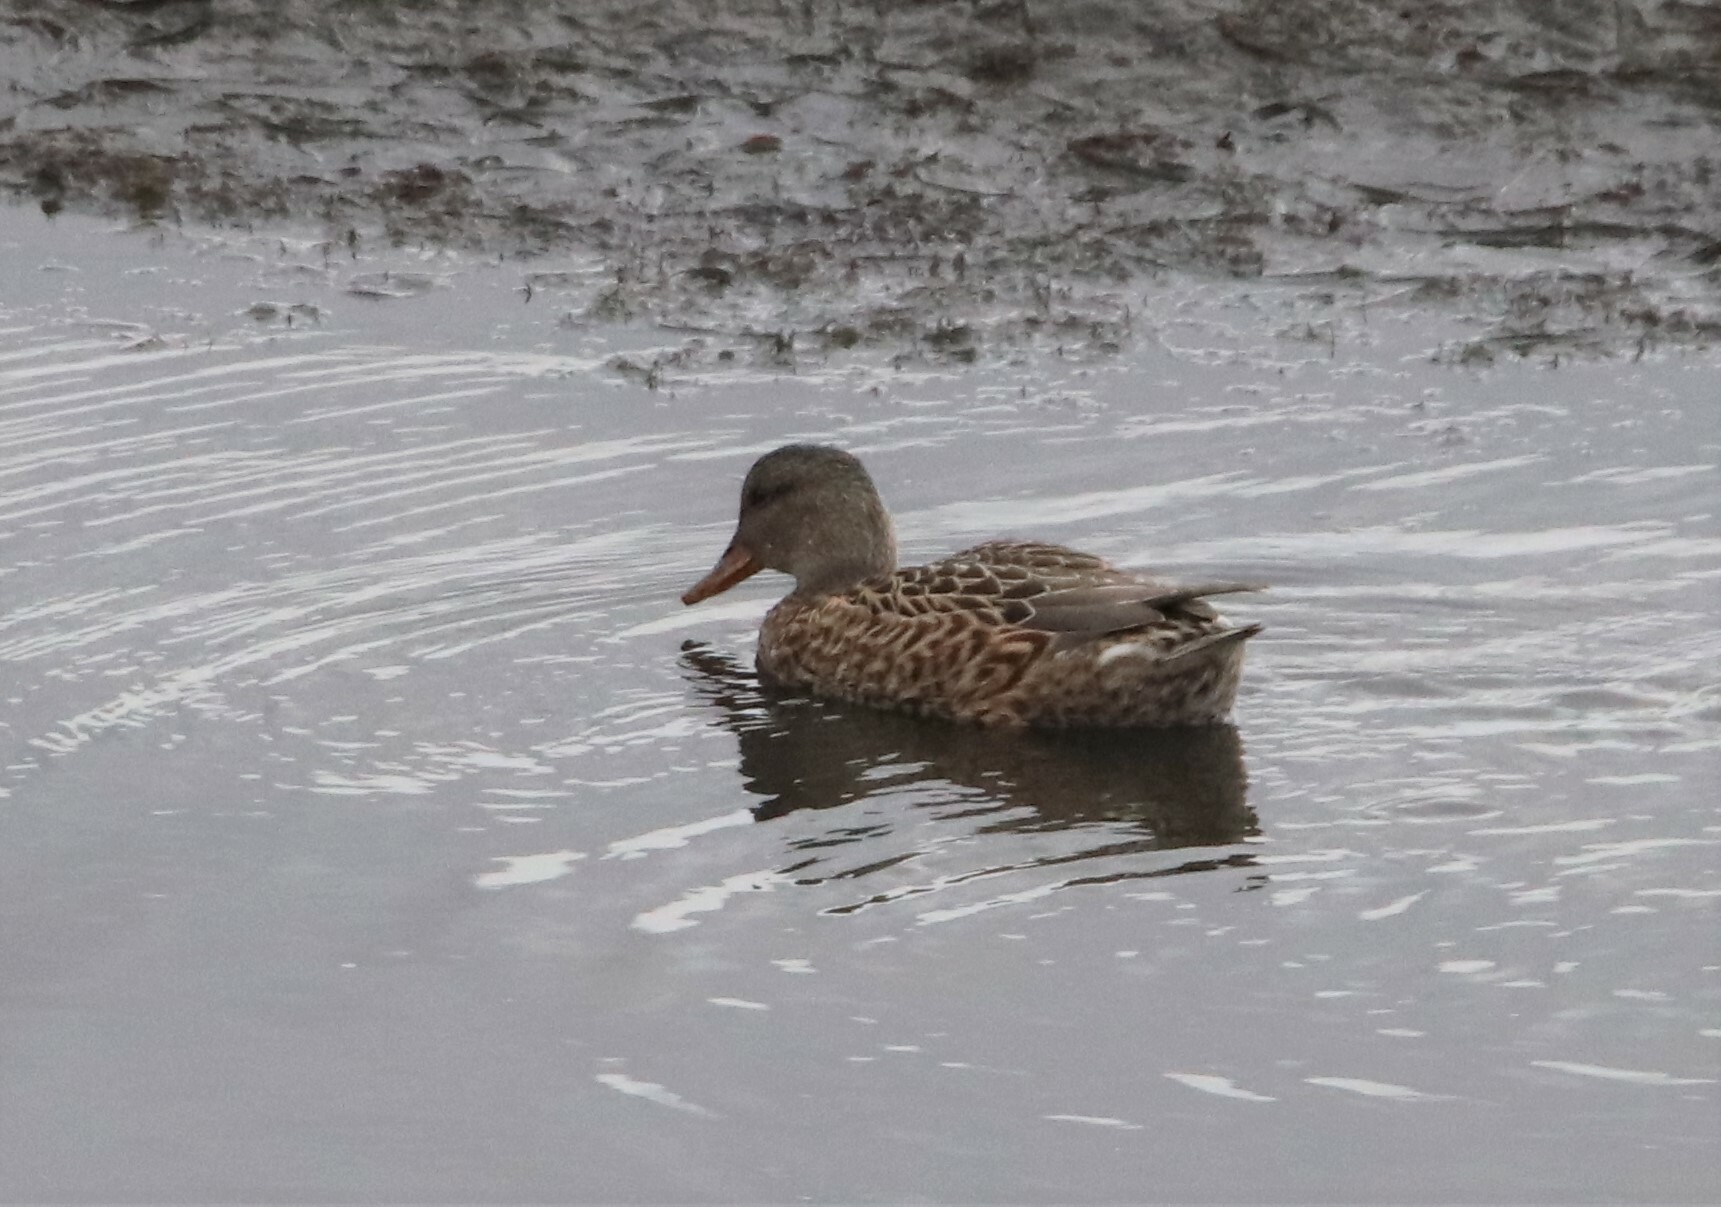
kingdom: Animalia
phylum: Chordata
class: Aves
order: Anseriformes
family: Anatidae
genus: Mareca
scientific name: Mareca strepera
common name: Gadwall
